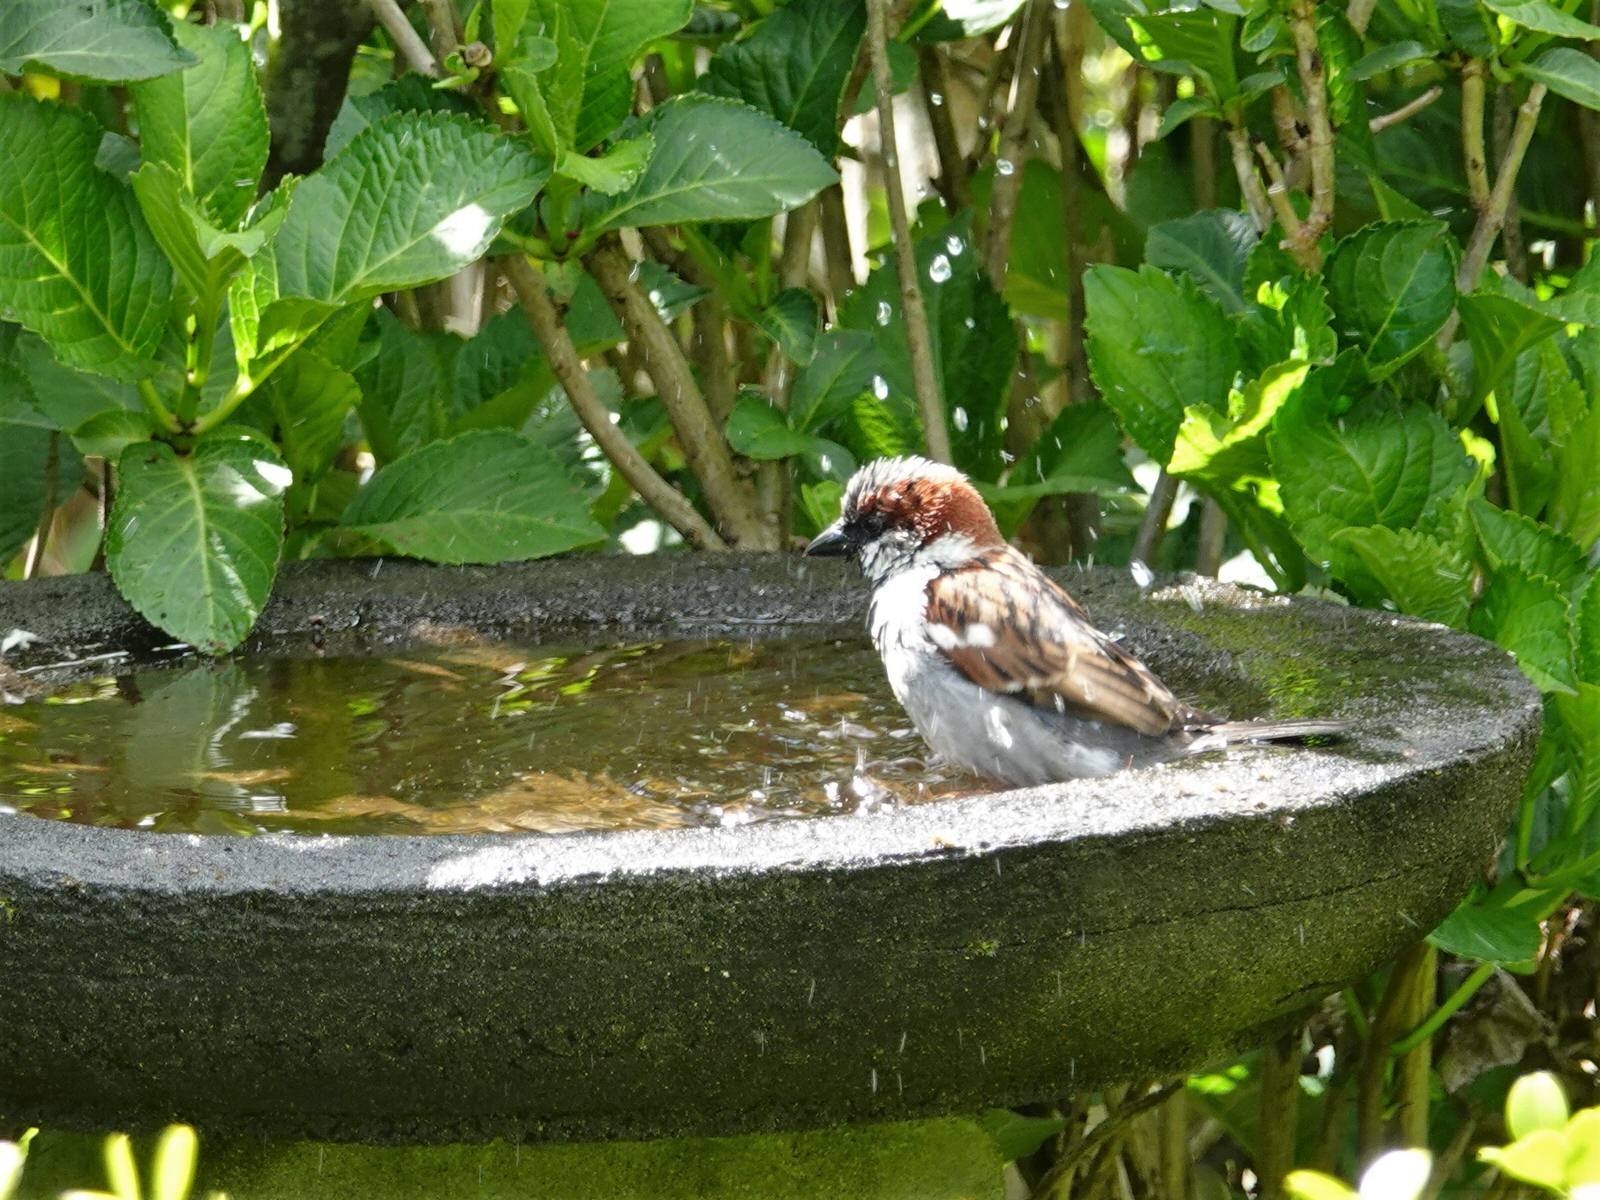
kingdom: Animalia
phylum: Chordata
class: Aves
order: Passeriformes
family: Passeridae
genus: Passer
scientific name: Passer domesticus
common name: House sparrow
